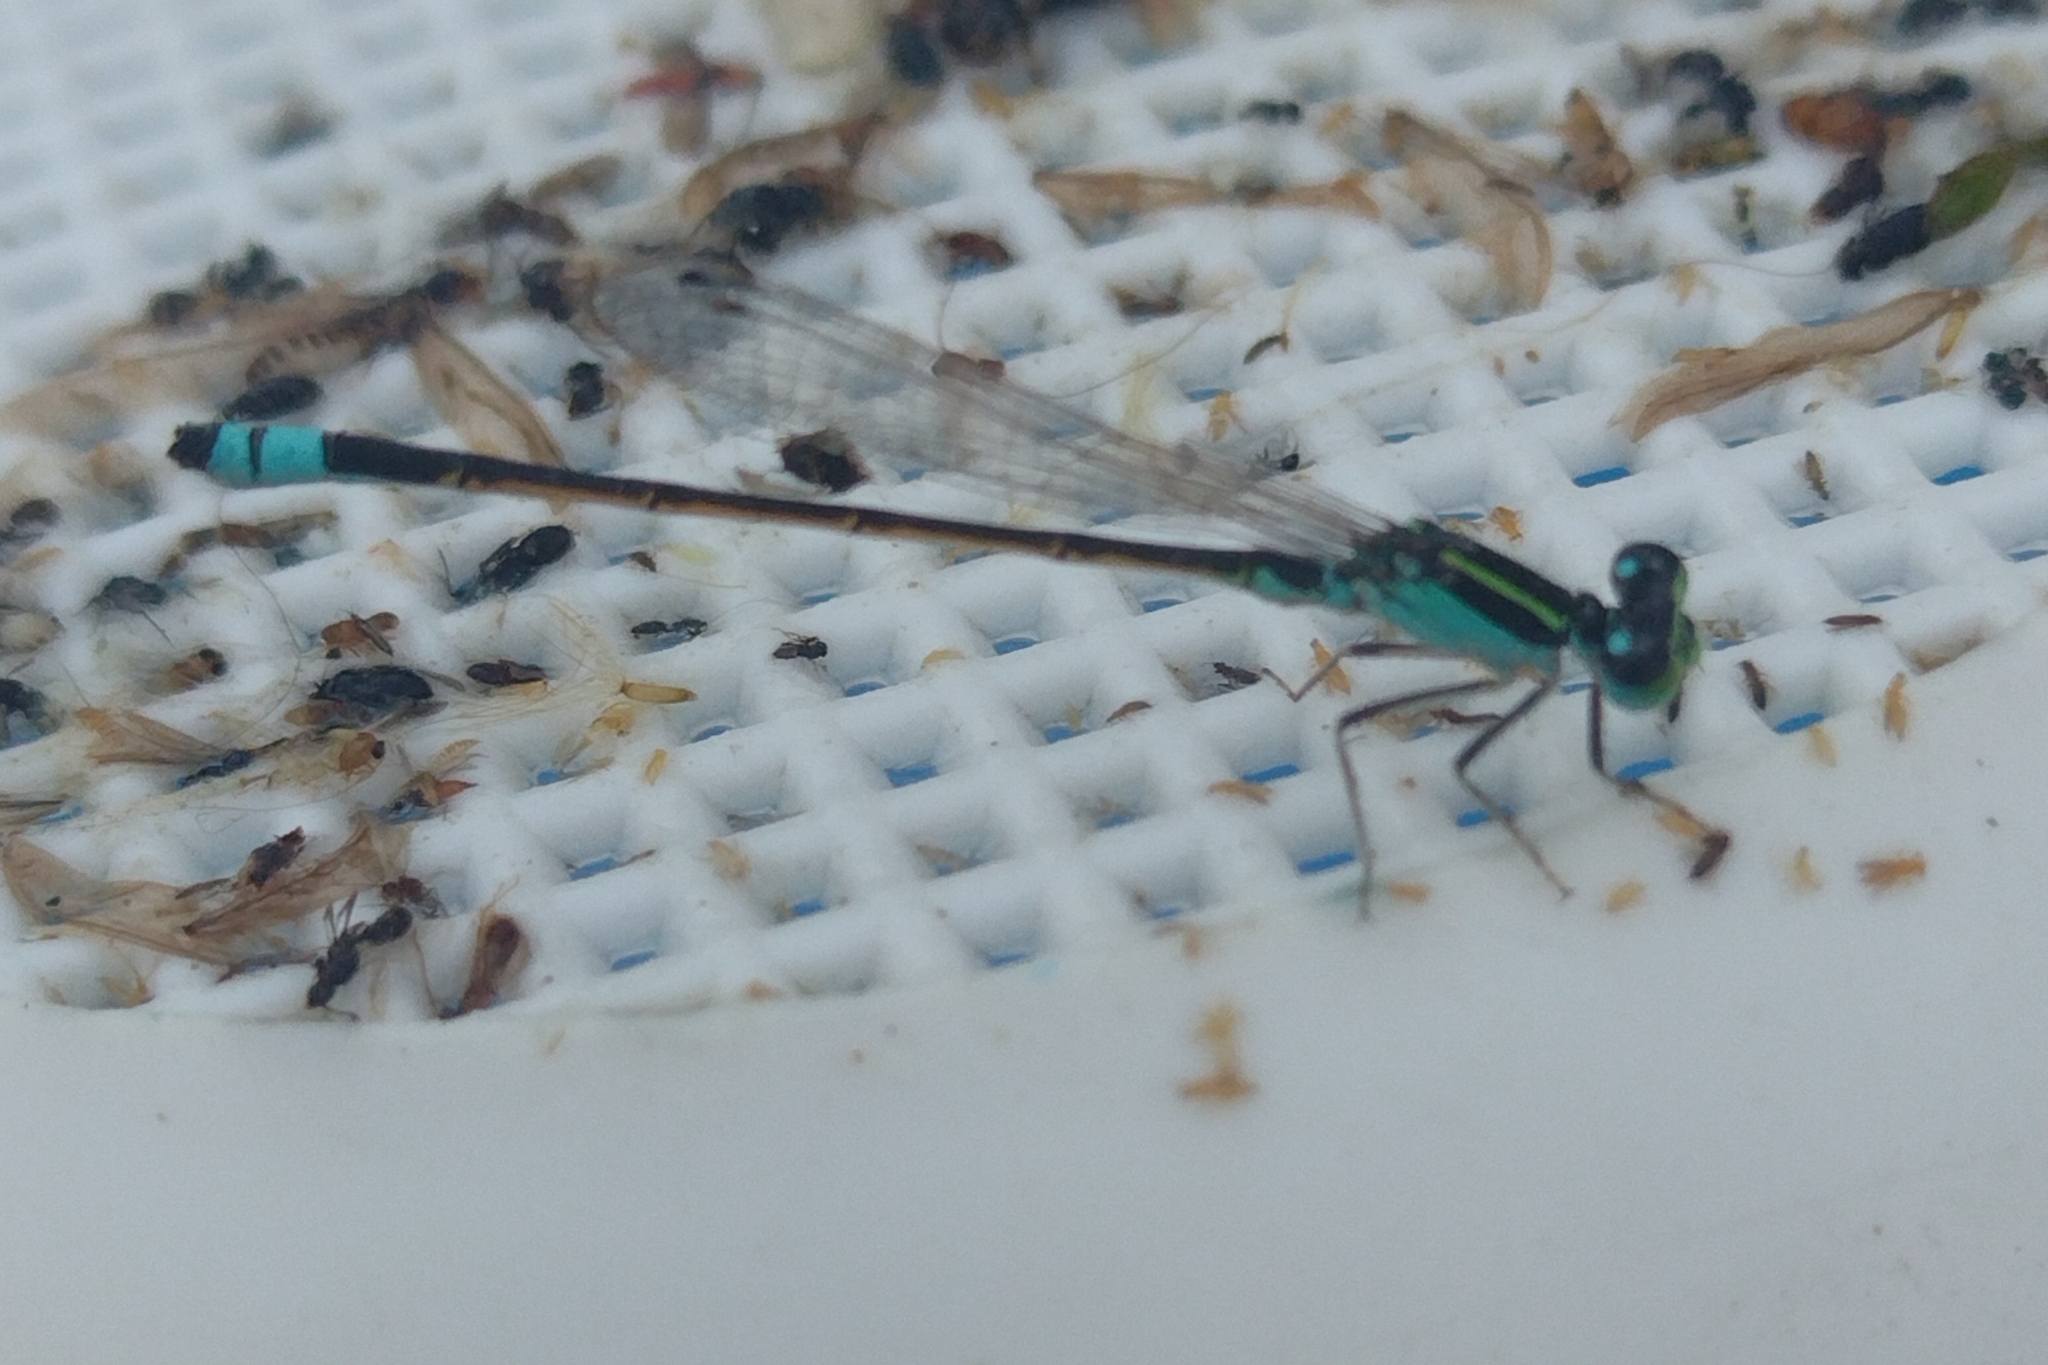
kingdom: Animalia
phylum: Arthropoda
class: Insecta
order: Odonata
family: Coenagrionidae
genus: Ischnura
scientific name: Ischnura fluviatilis
